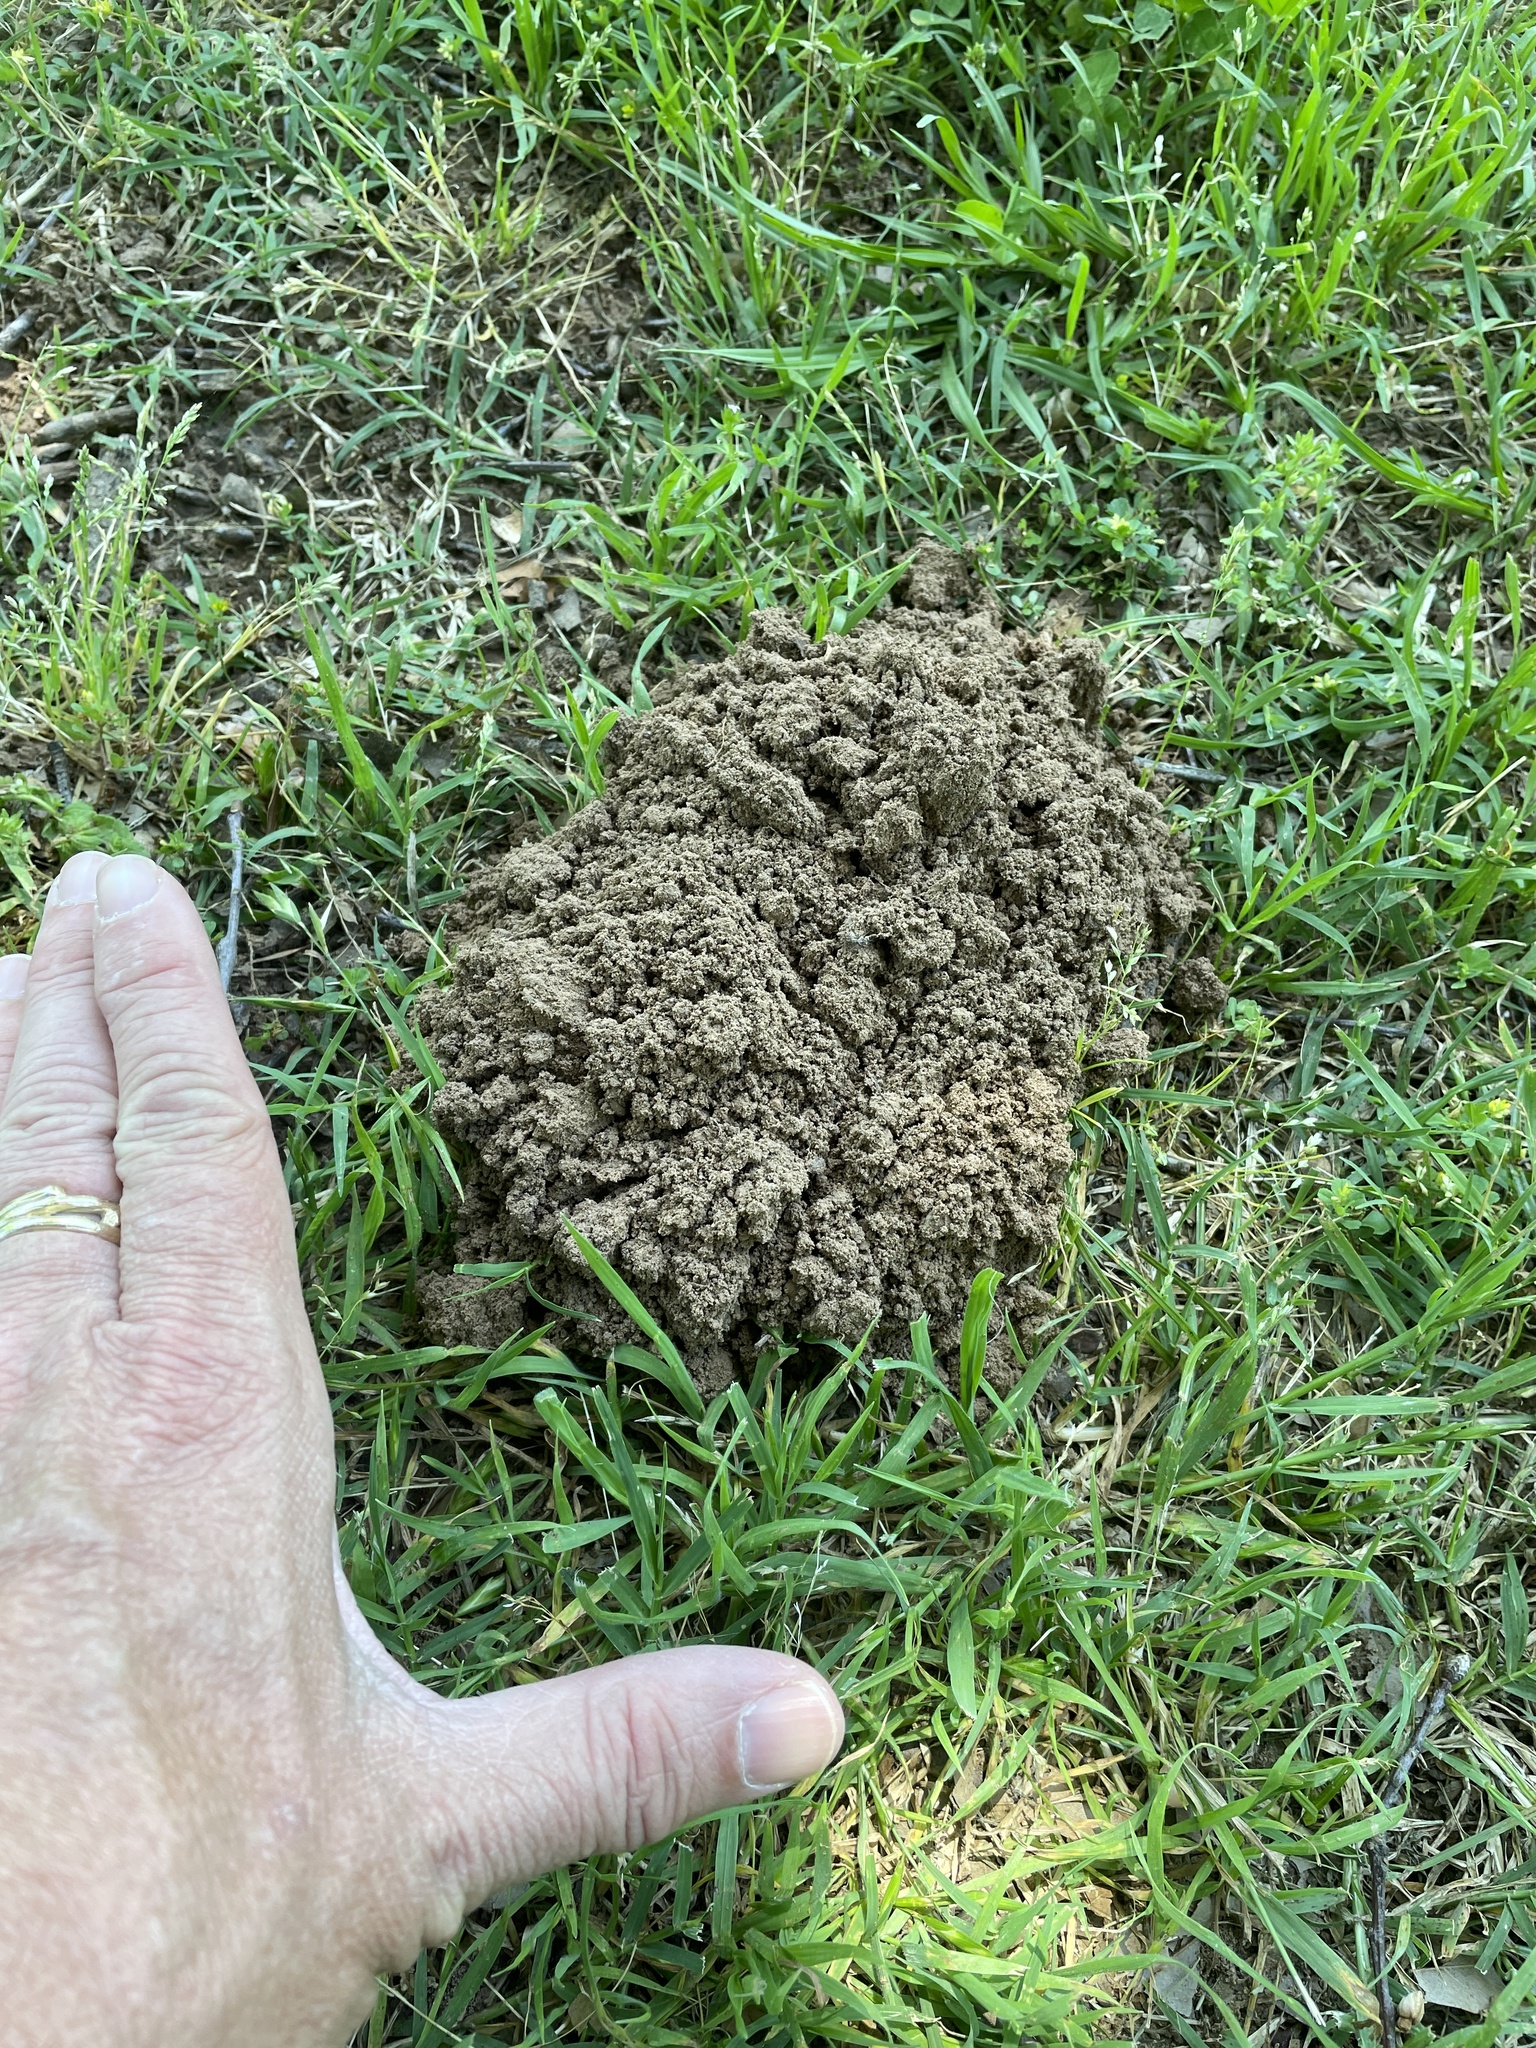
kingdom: Animalia
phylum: Chordata
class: Mammalia
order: Rodentia
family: Geomyidae
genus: Geomys
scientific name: Geomys breviceps
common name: Baird's pocket gopher
